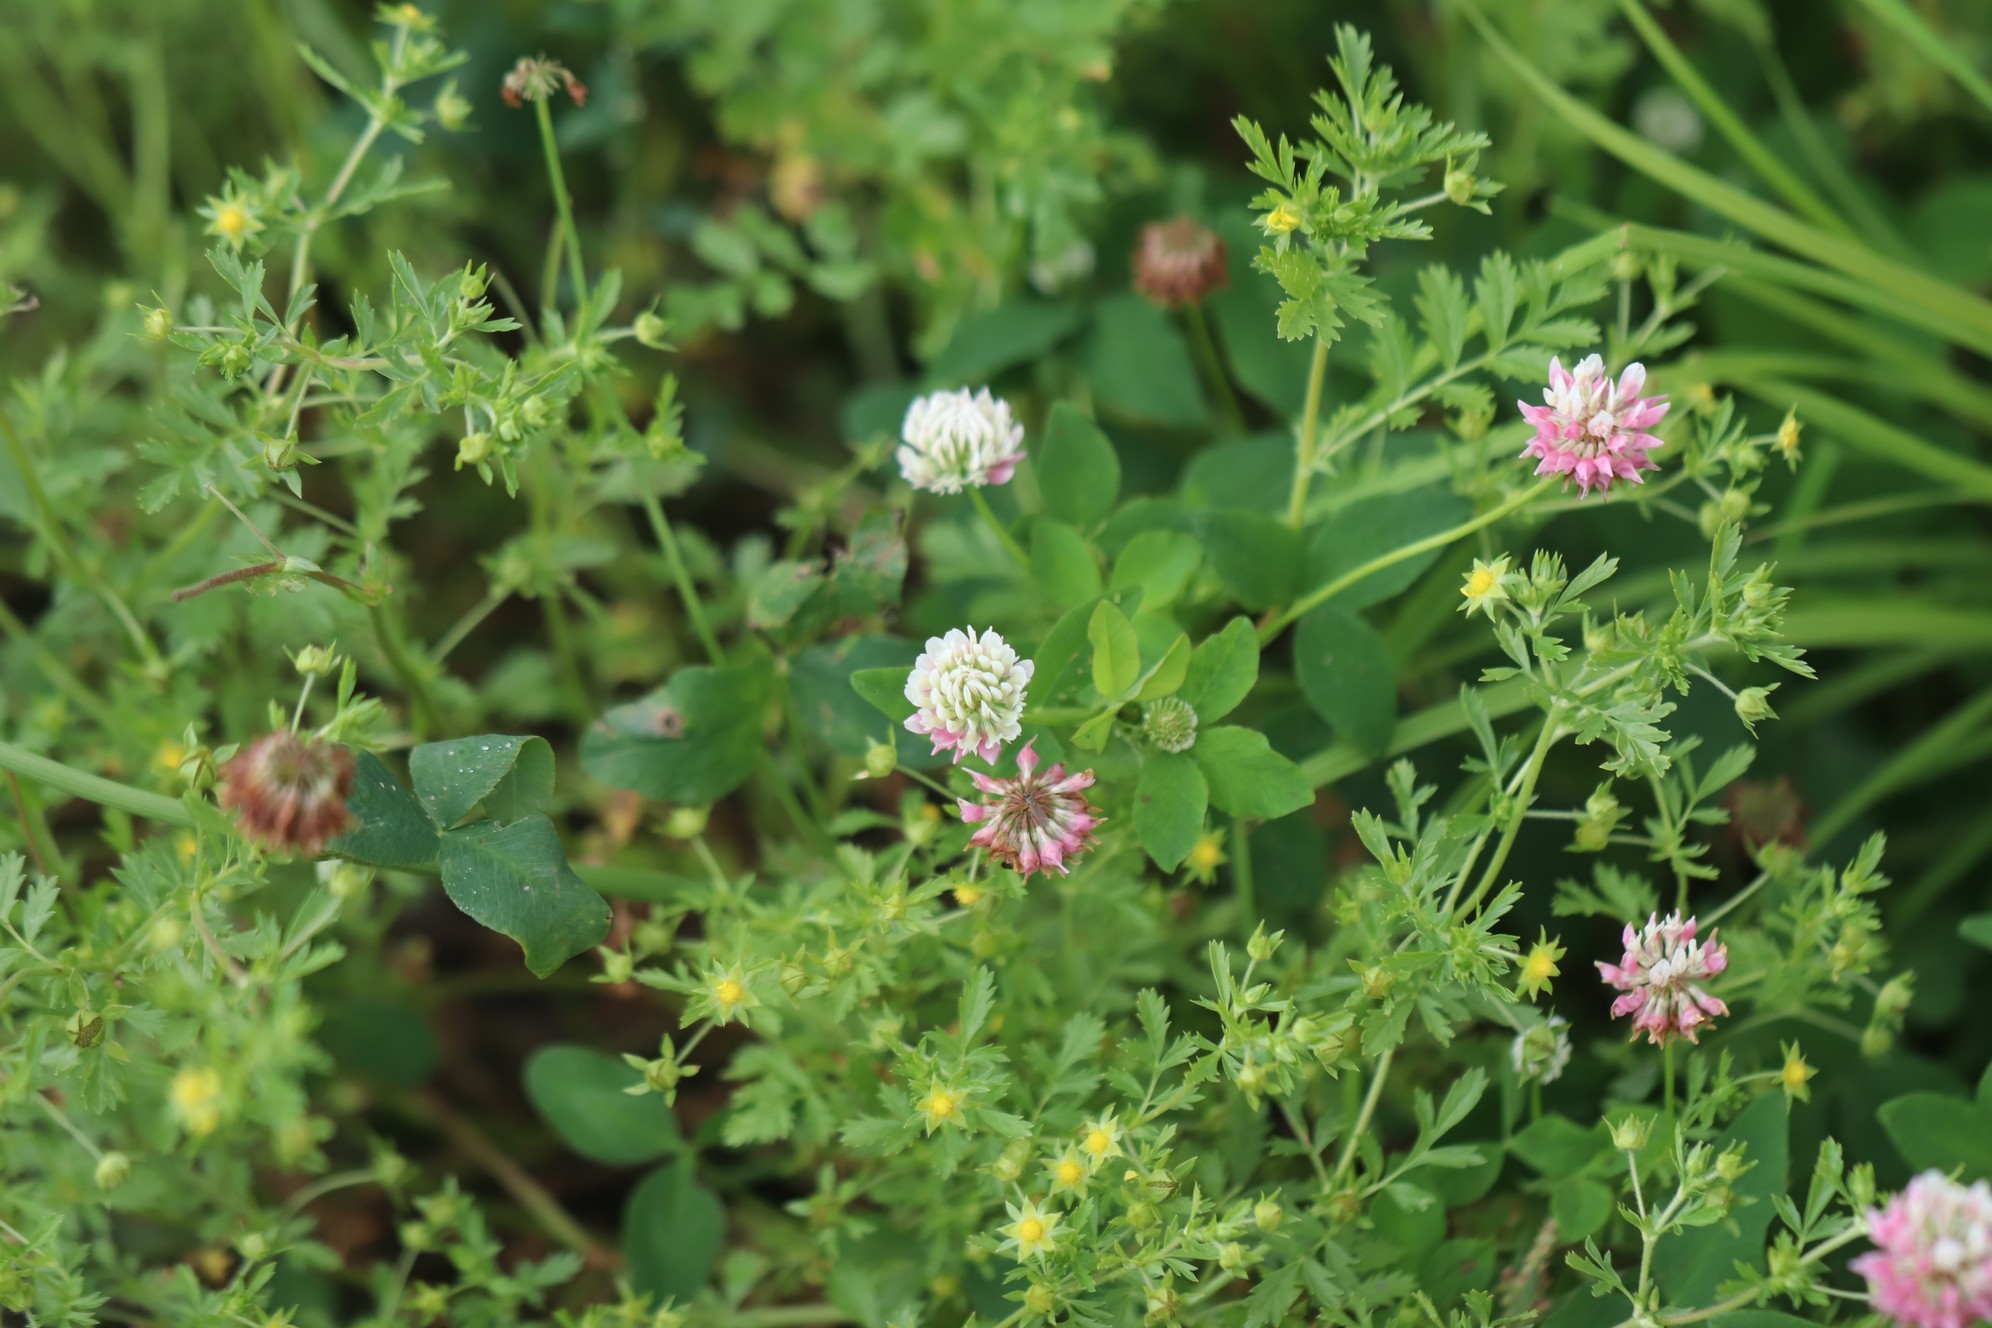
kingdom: Plantae
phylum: Tracheophyta
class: Magnoliopsida
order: Fabales
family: Fabaceae
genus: Trifolium
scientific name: Trifolium hybridum
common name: Alsike clover
